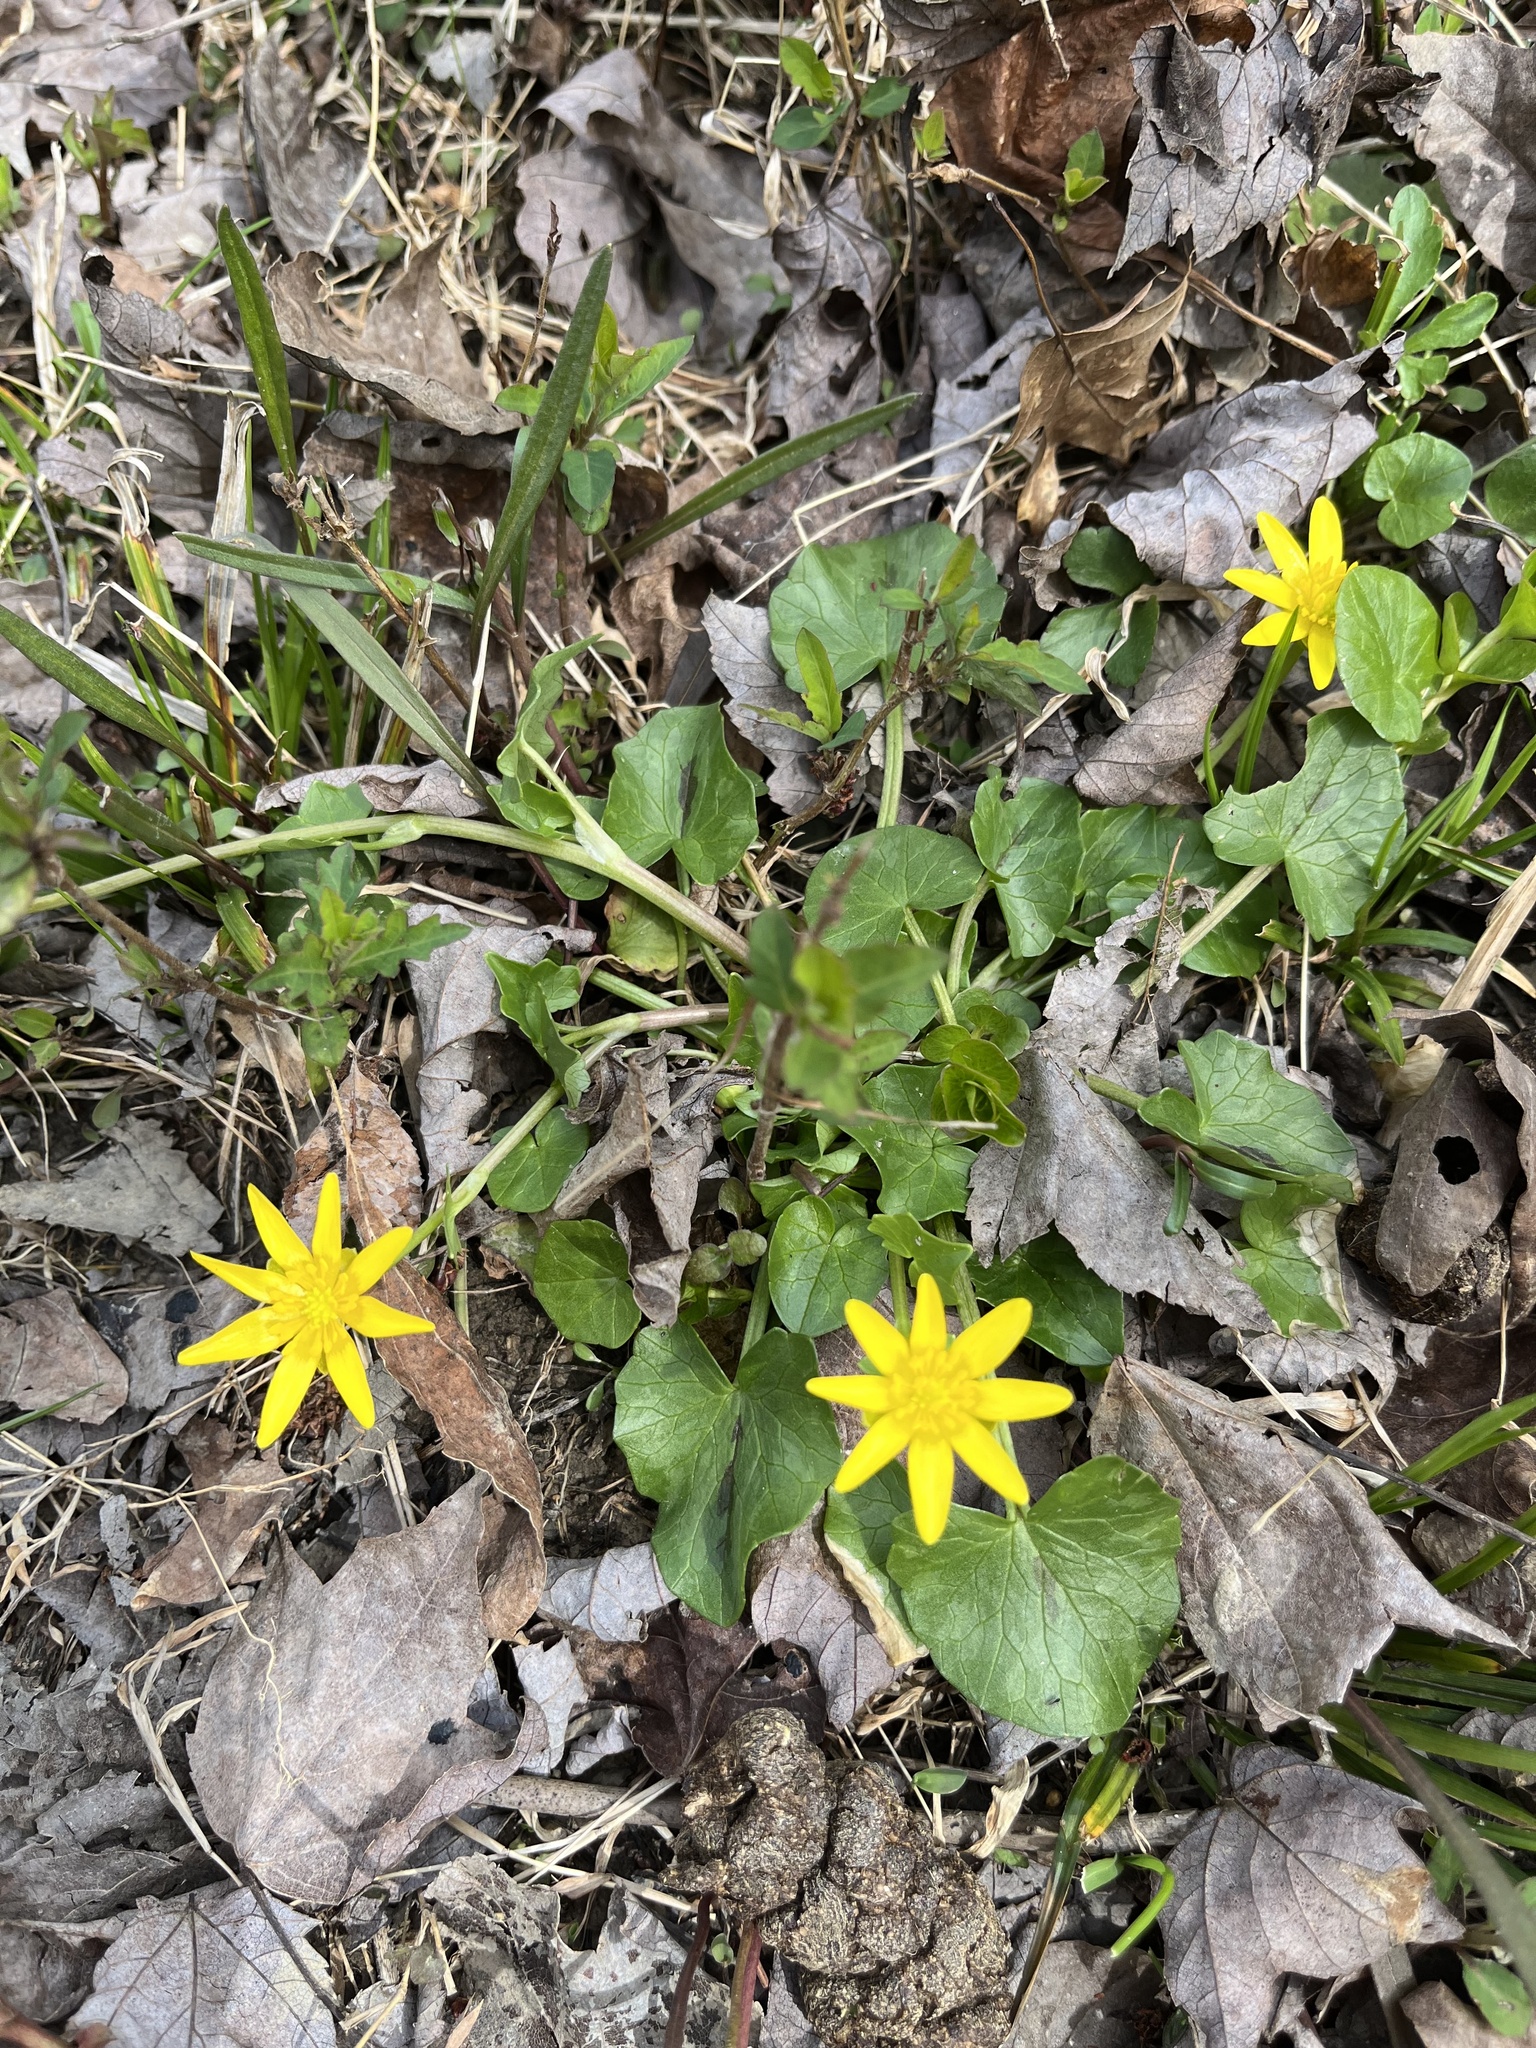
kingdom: Plantae
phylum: Tracheophyta
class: Magnoliopsida
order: Ranunculales
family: Ranunculaceae
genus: Ficaria
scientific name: Ficaria verna
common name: Lesser celandine
